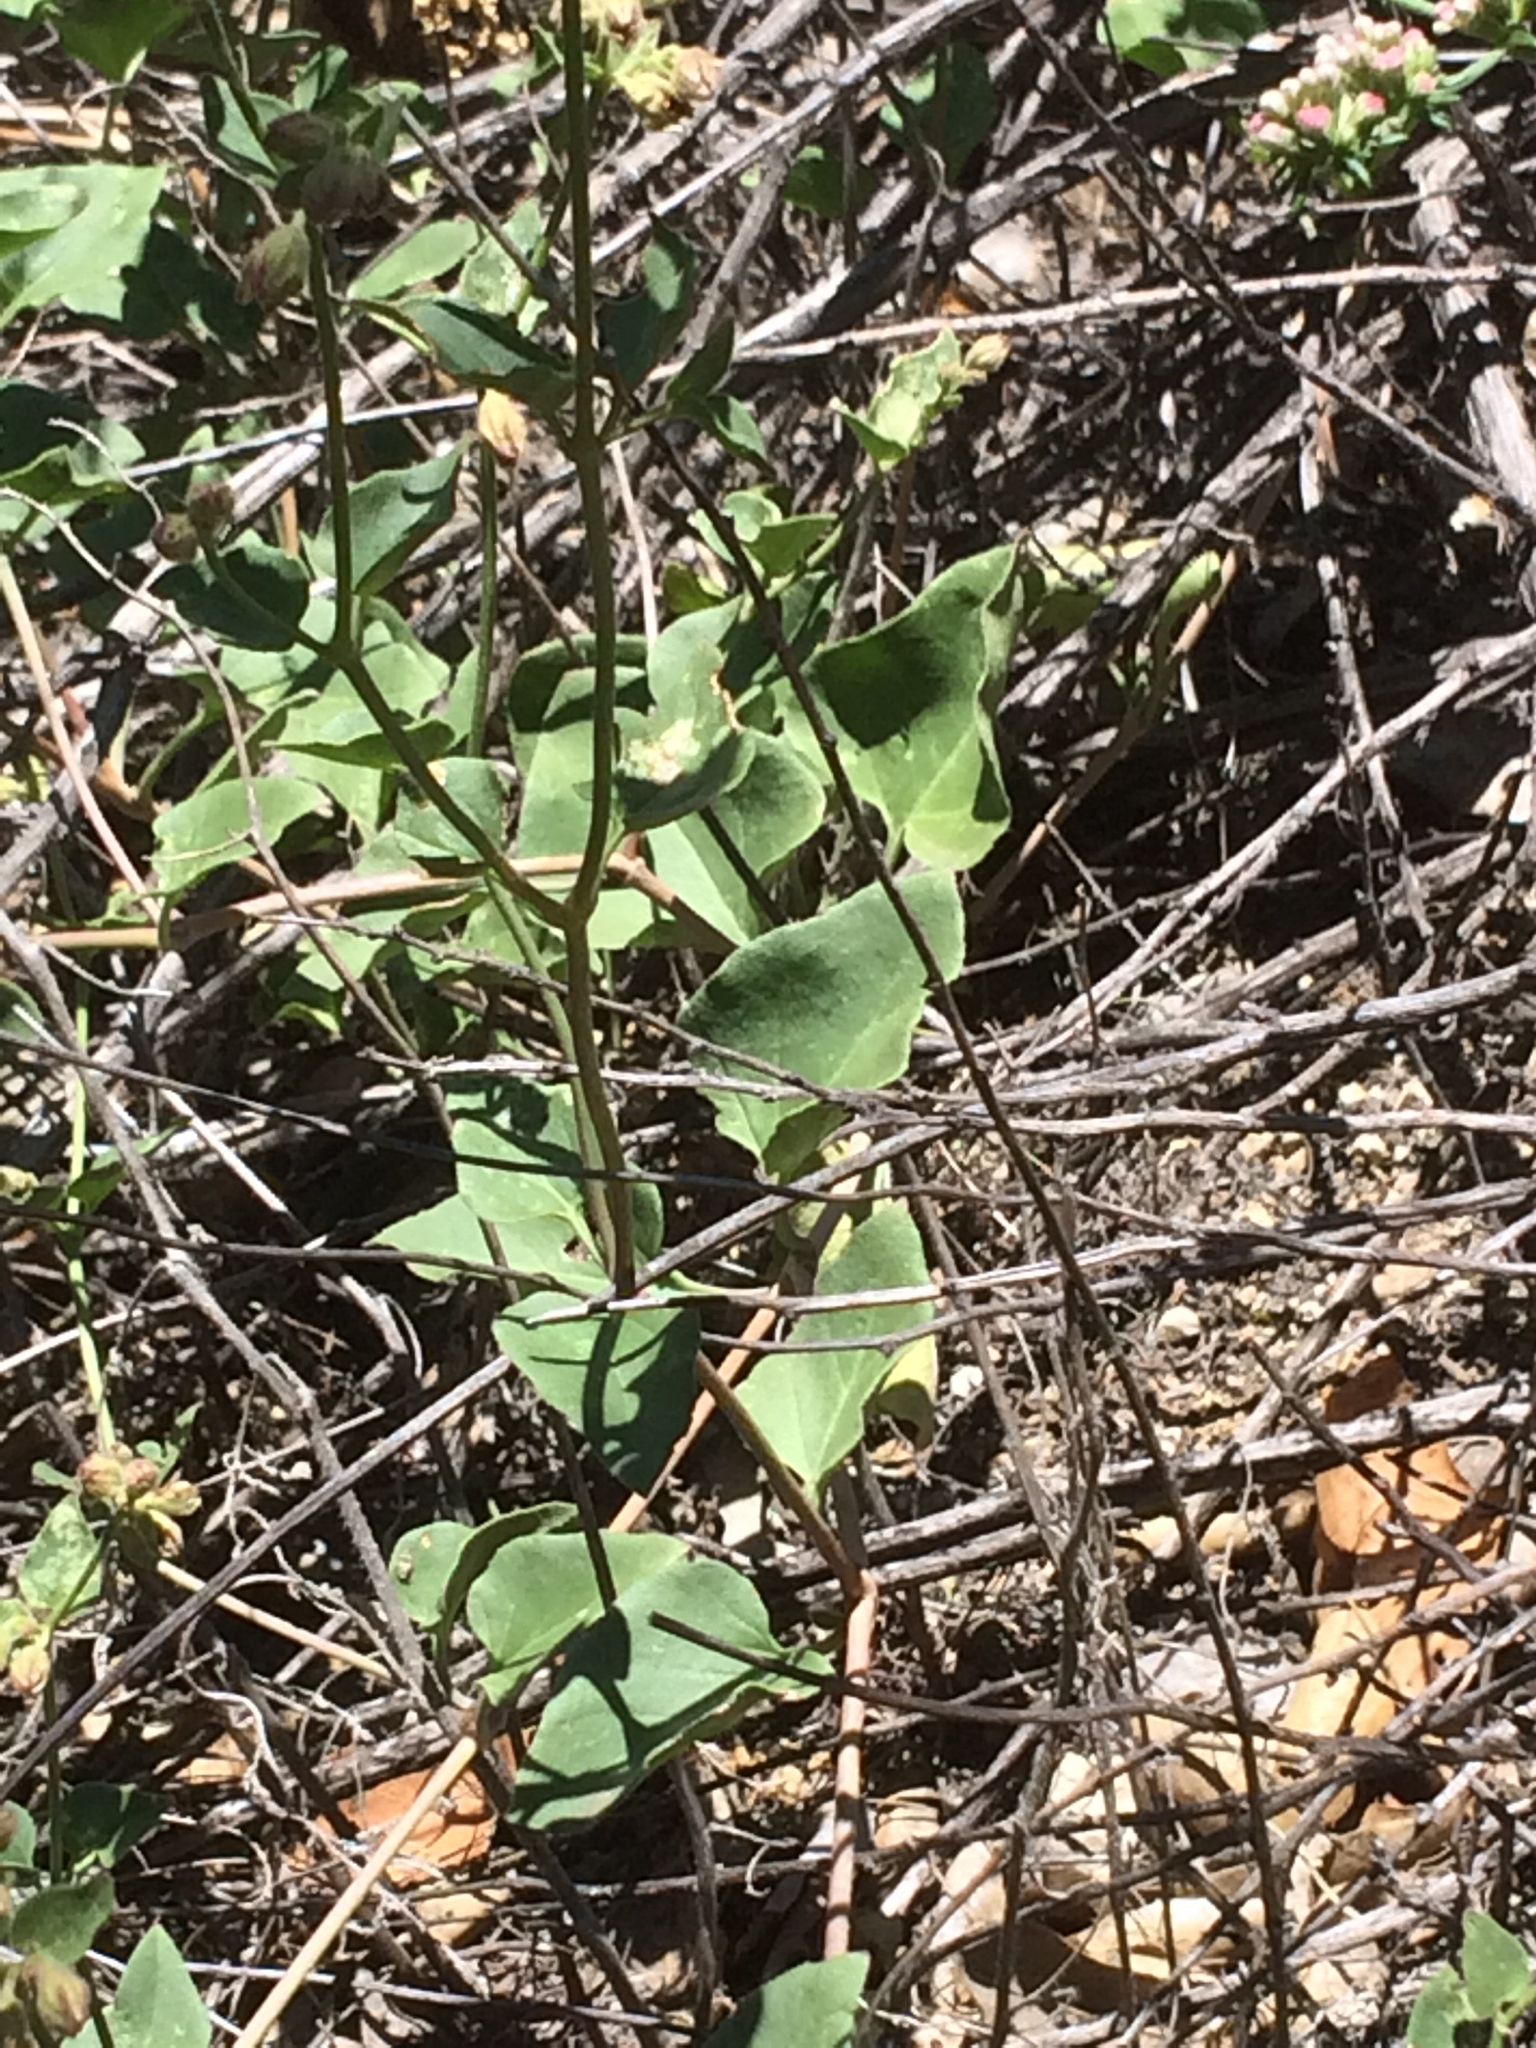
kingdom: Plantae
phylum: Tracheophyta
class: Magnoliopsida
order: Caryophyllales
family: Nyctaginaceae
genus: Mirabilis
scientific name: Mirabilis laevis
